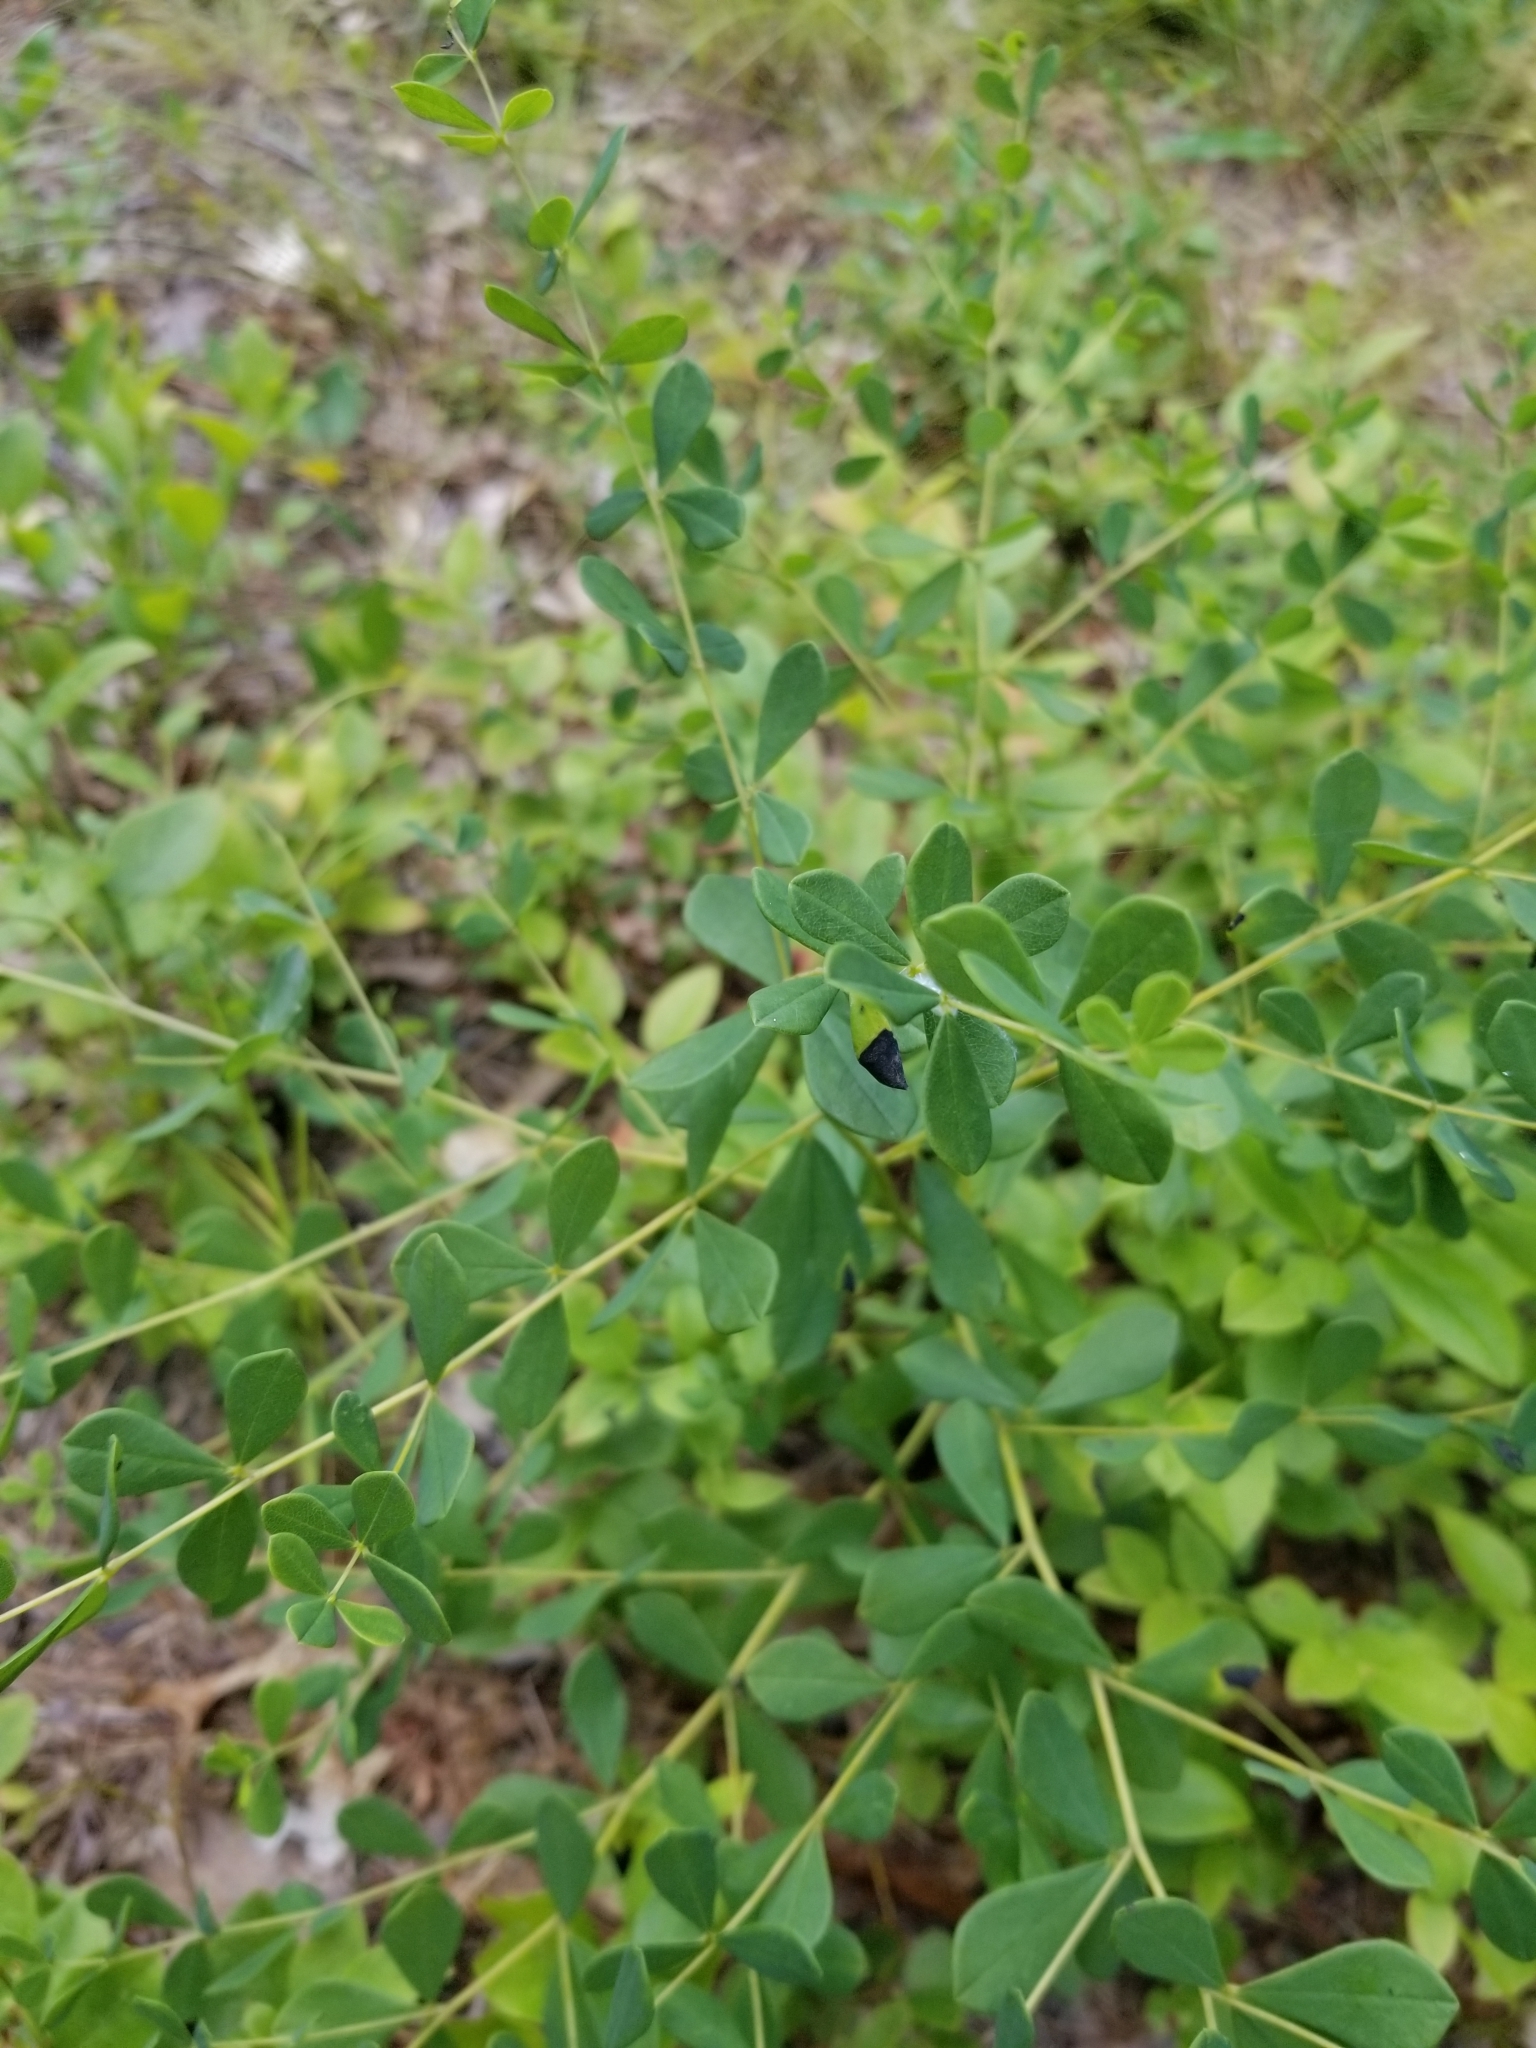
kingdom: Plantae
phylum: Tracheophyta
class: Magnoliopsida
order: Fabales
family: Fabaceae
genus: Baptisia
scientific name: Baptisia tinctoria
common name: Wild indigo
